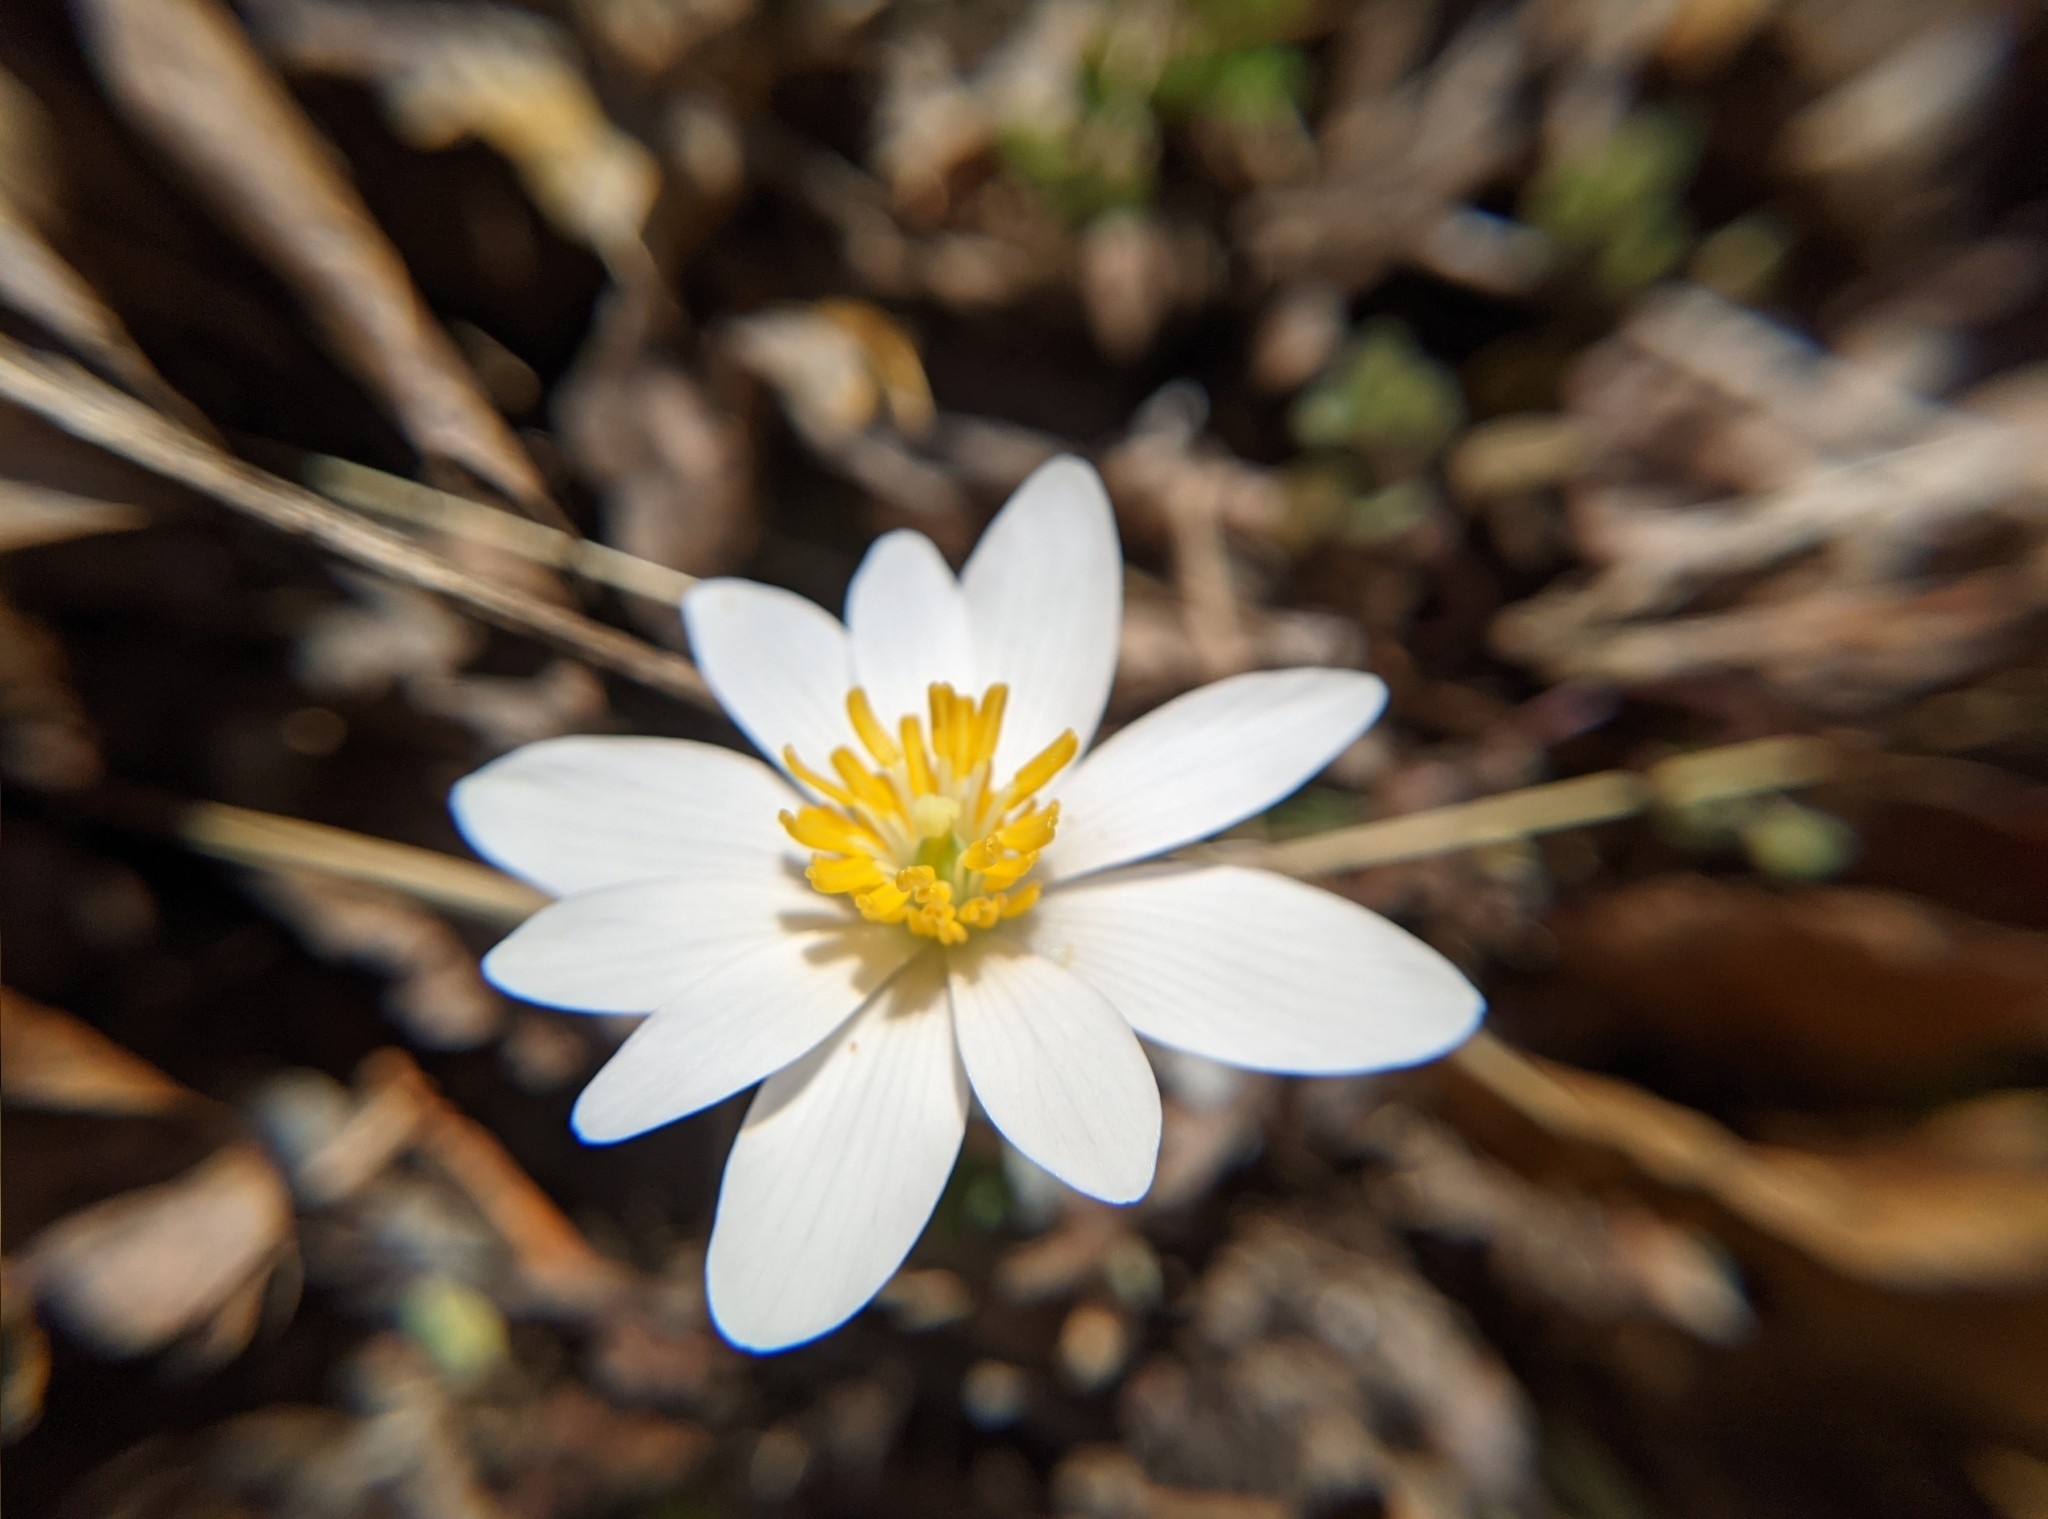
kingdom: Plantae
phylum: Tracheophyta
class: Magnoliopsida
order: Ranunculales
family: Papaveraceae
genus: Sanguinaria
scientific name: Sanguinaria canadensis
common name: Bloodroot
